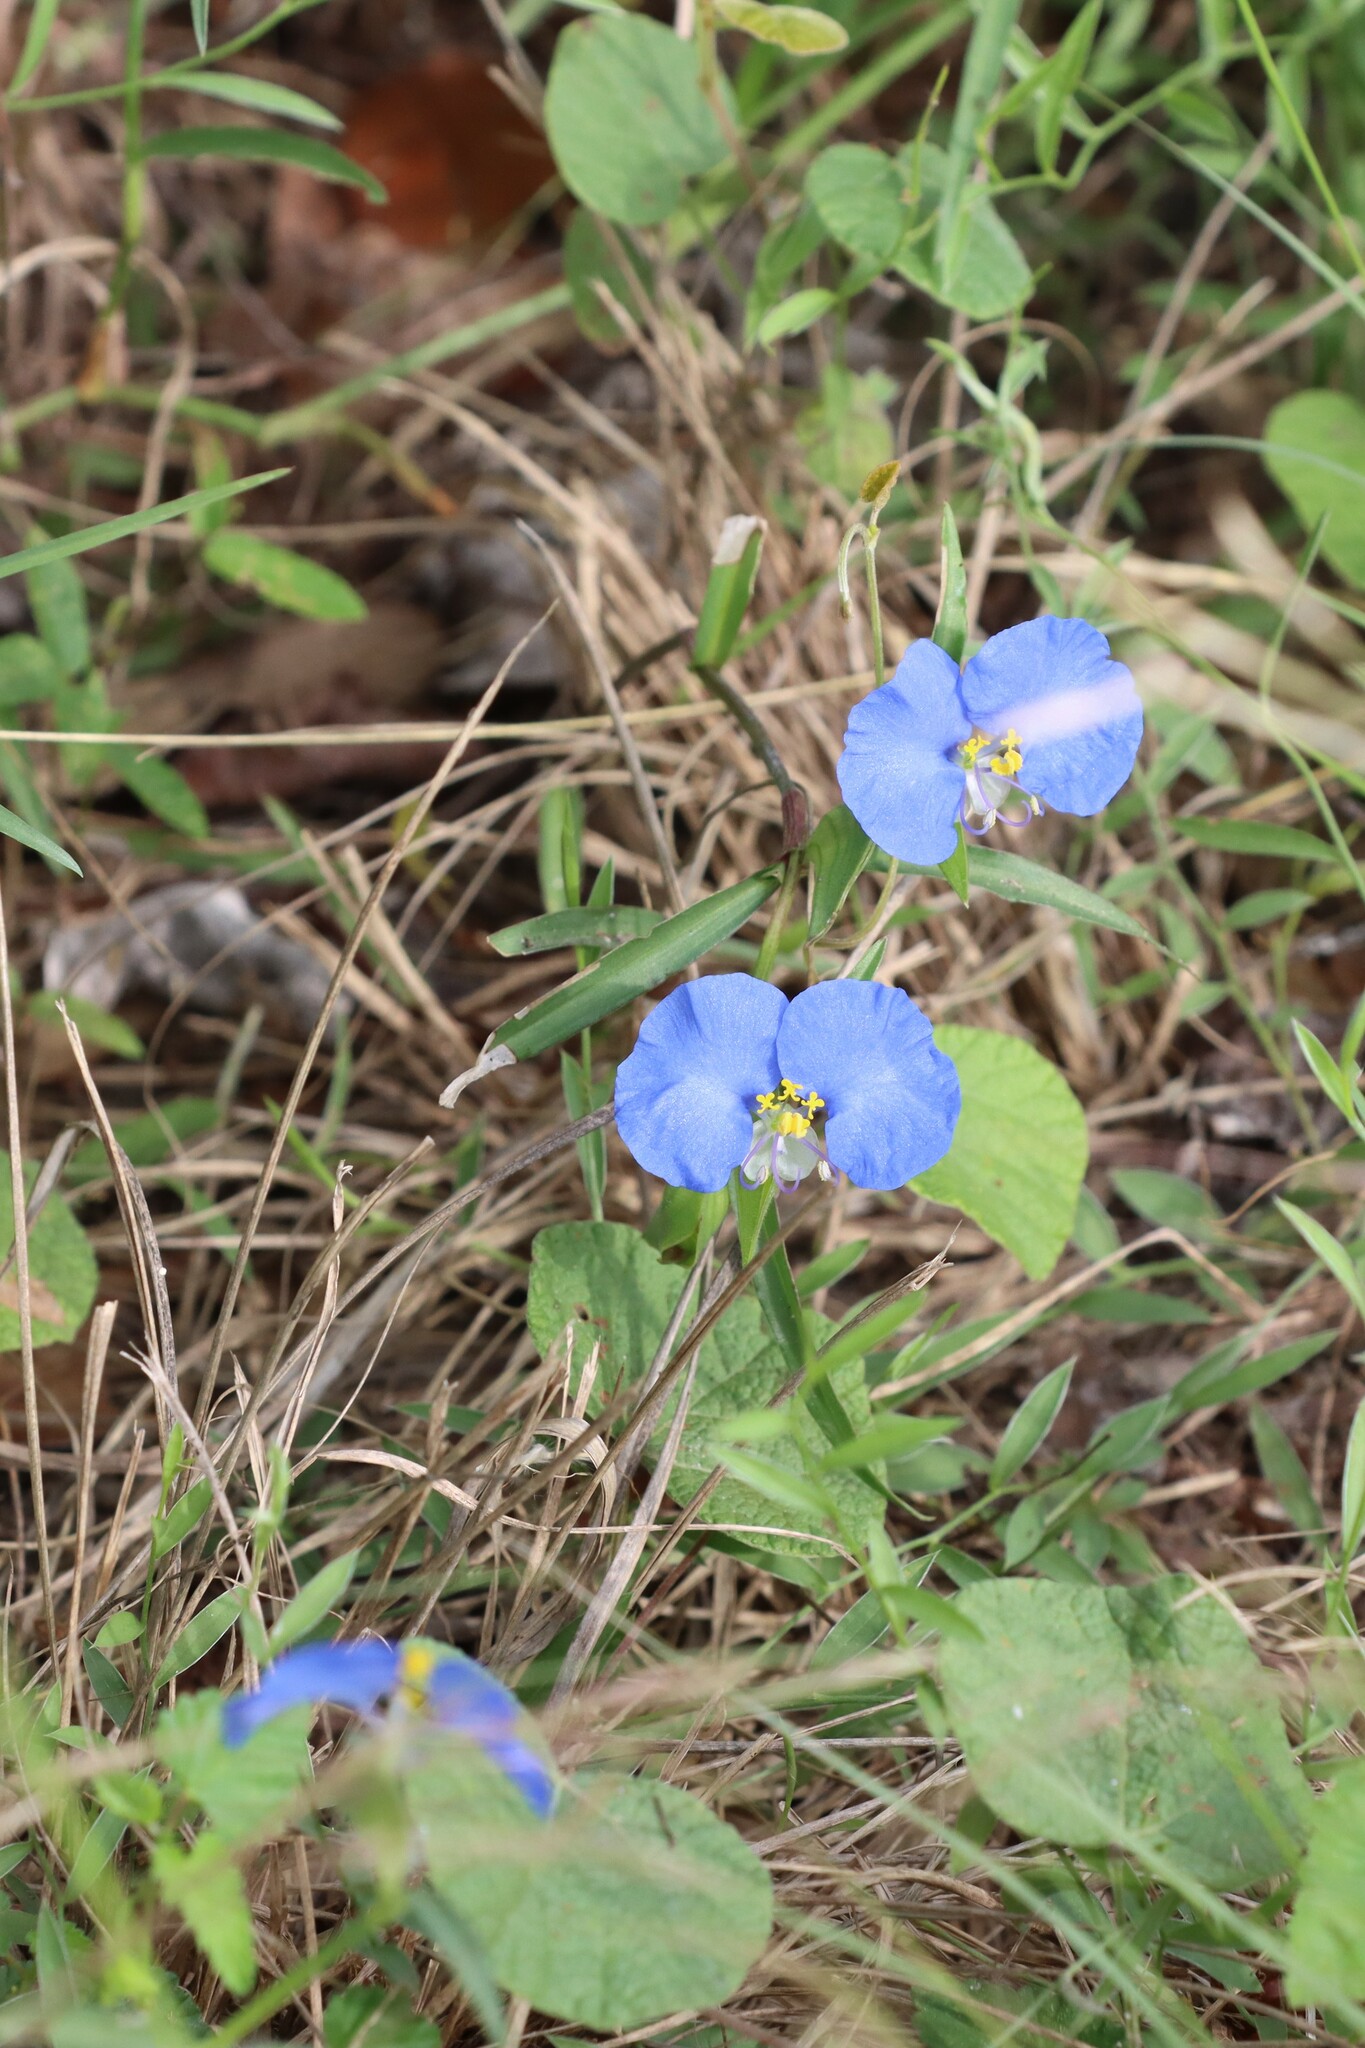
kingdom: Plantae
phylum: Tracheophyta
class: Liliopsida
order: Commelinales
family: Commelinaceae
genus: Commelina
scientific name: Commelina erecta
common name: Blousel blommetjie
